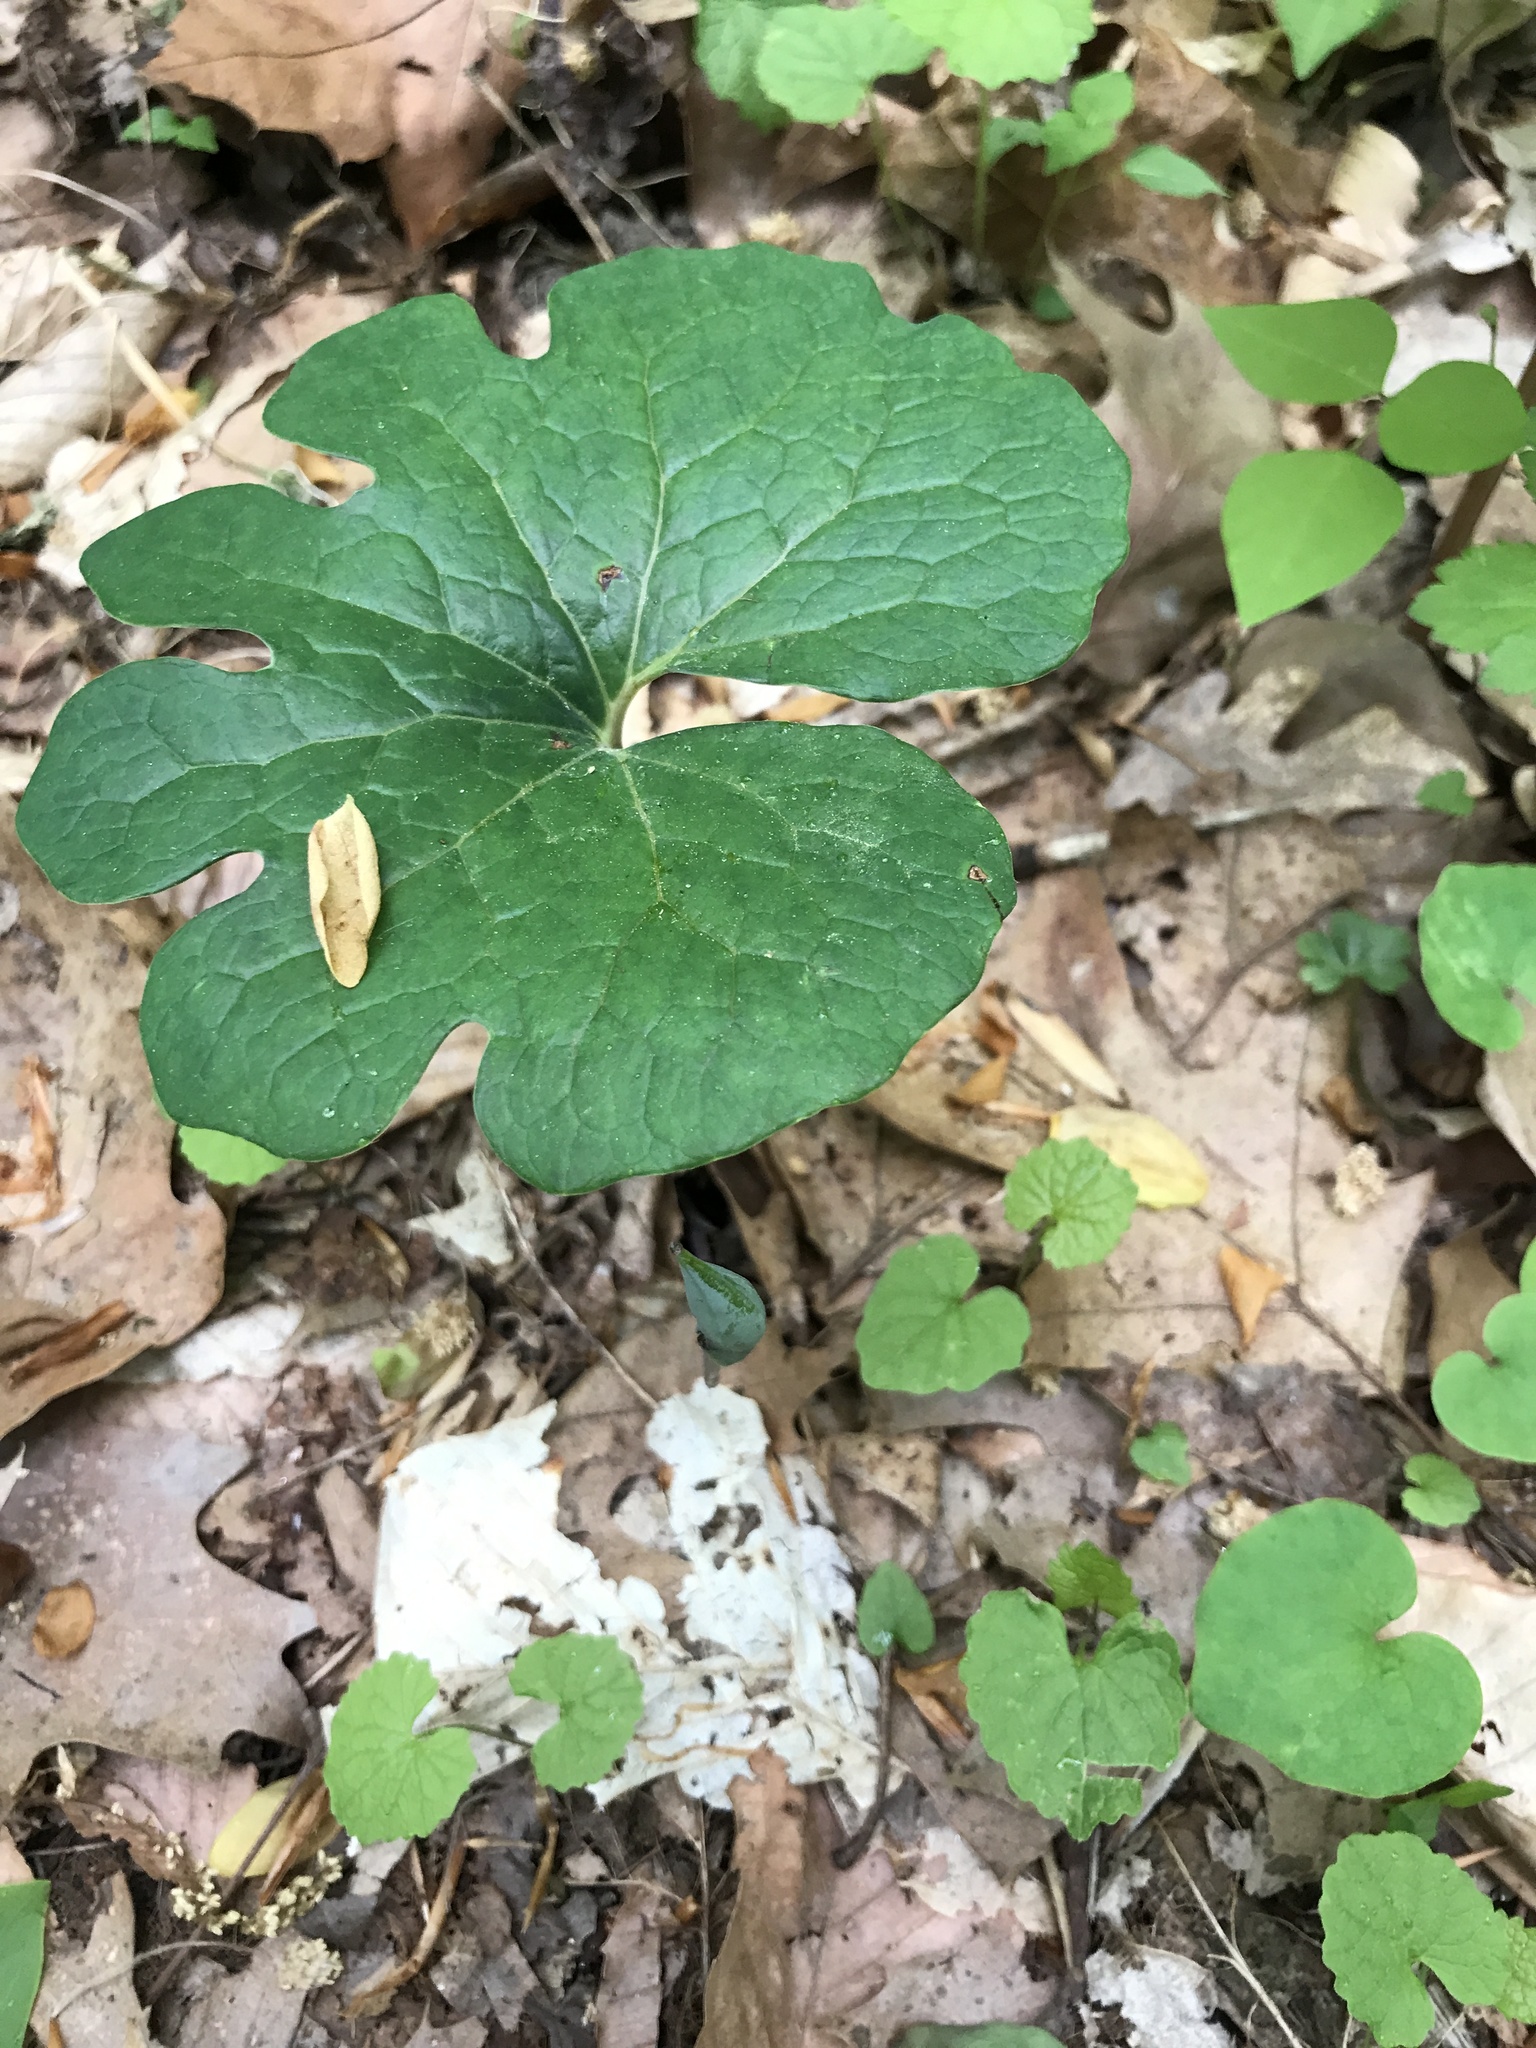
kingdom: Plantae
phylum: Tracheophyta
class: Magnoliopsida
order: Ranunculales
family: Papaveraceae
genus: Sanguinaria
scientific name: Sanguinaria canadensis
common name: Bloodroot
